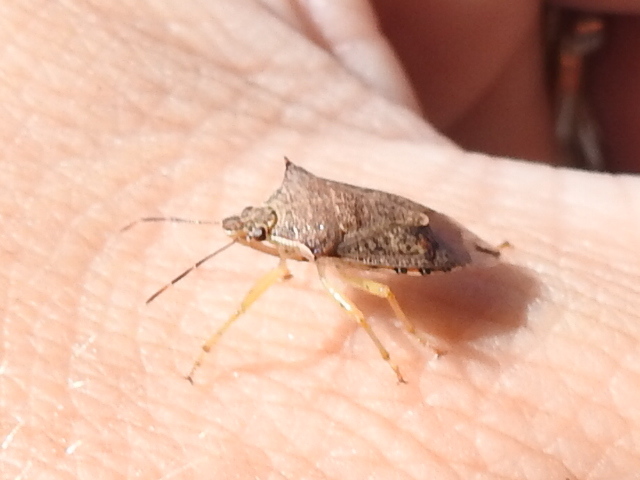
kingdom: Animalia
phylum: Arthropoda
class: Insecta
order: Hemiptera
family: Pentatomidae
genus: Podisus
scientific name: Podisus maculiventris
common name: Spined soldier bug
